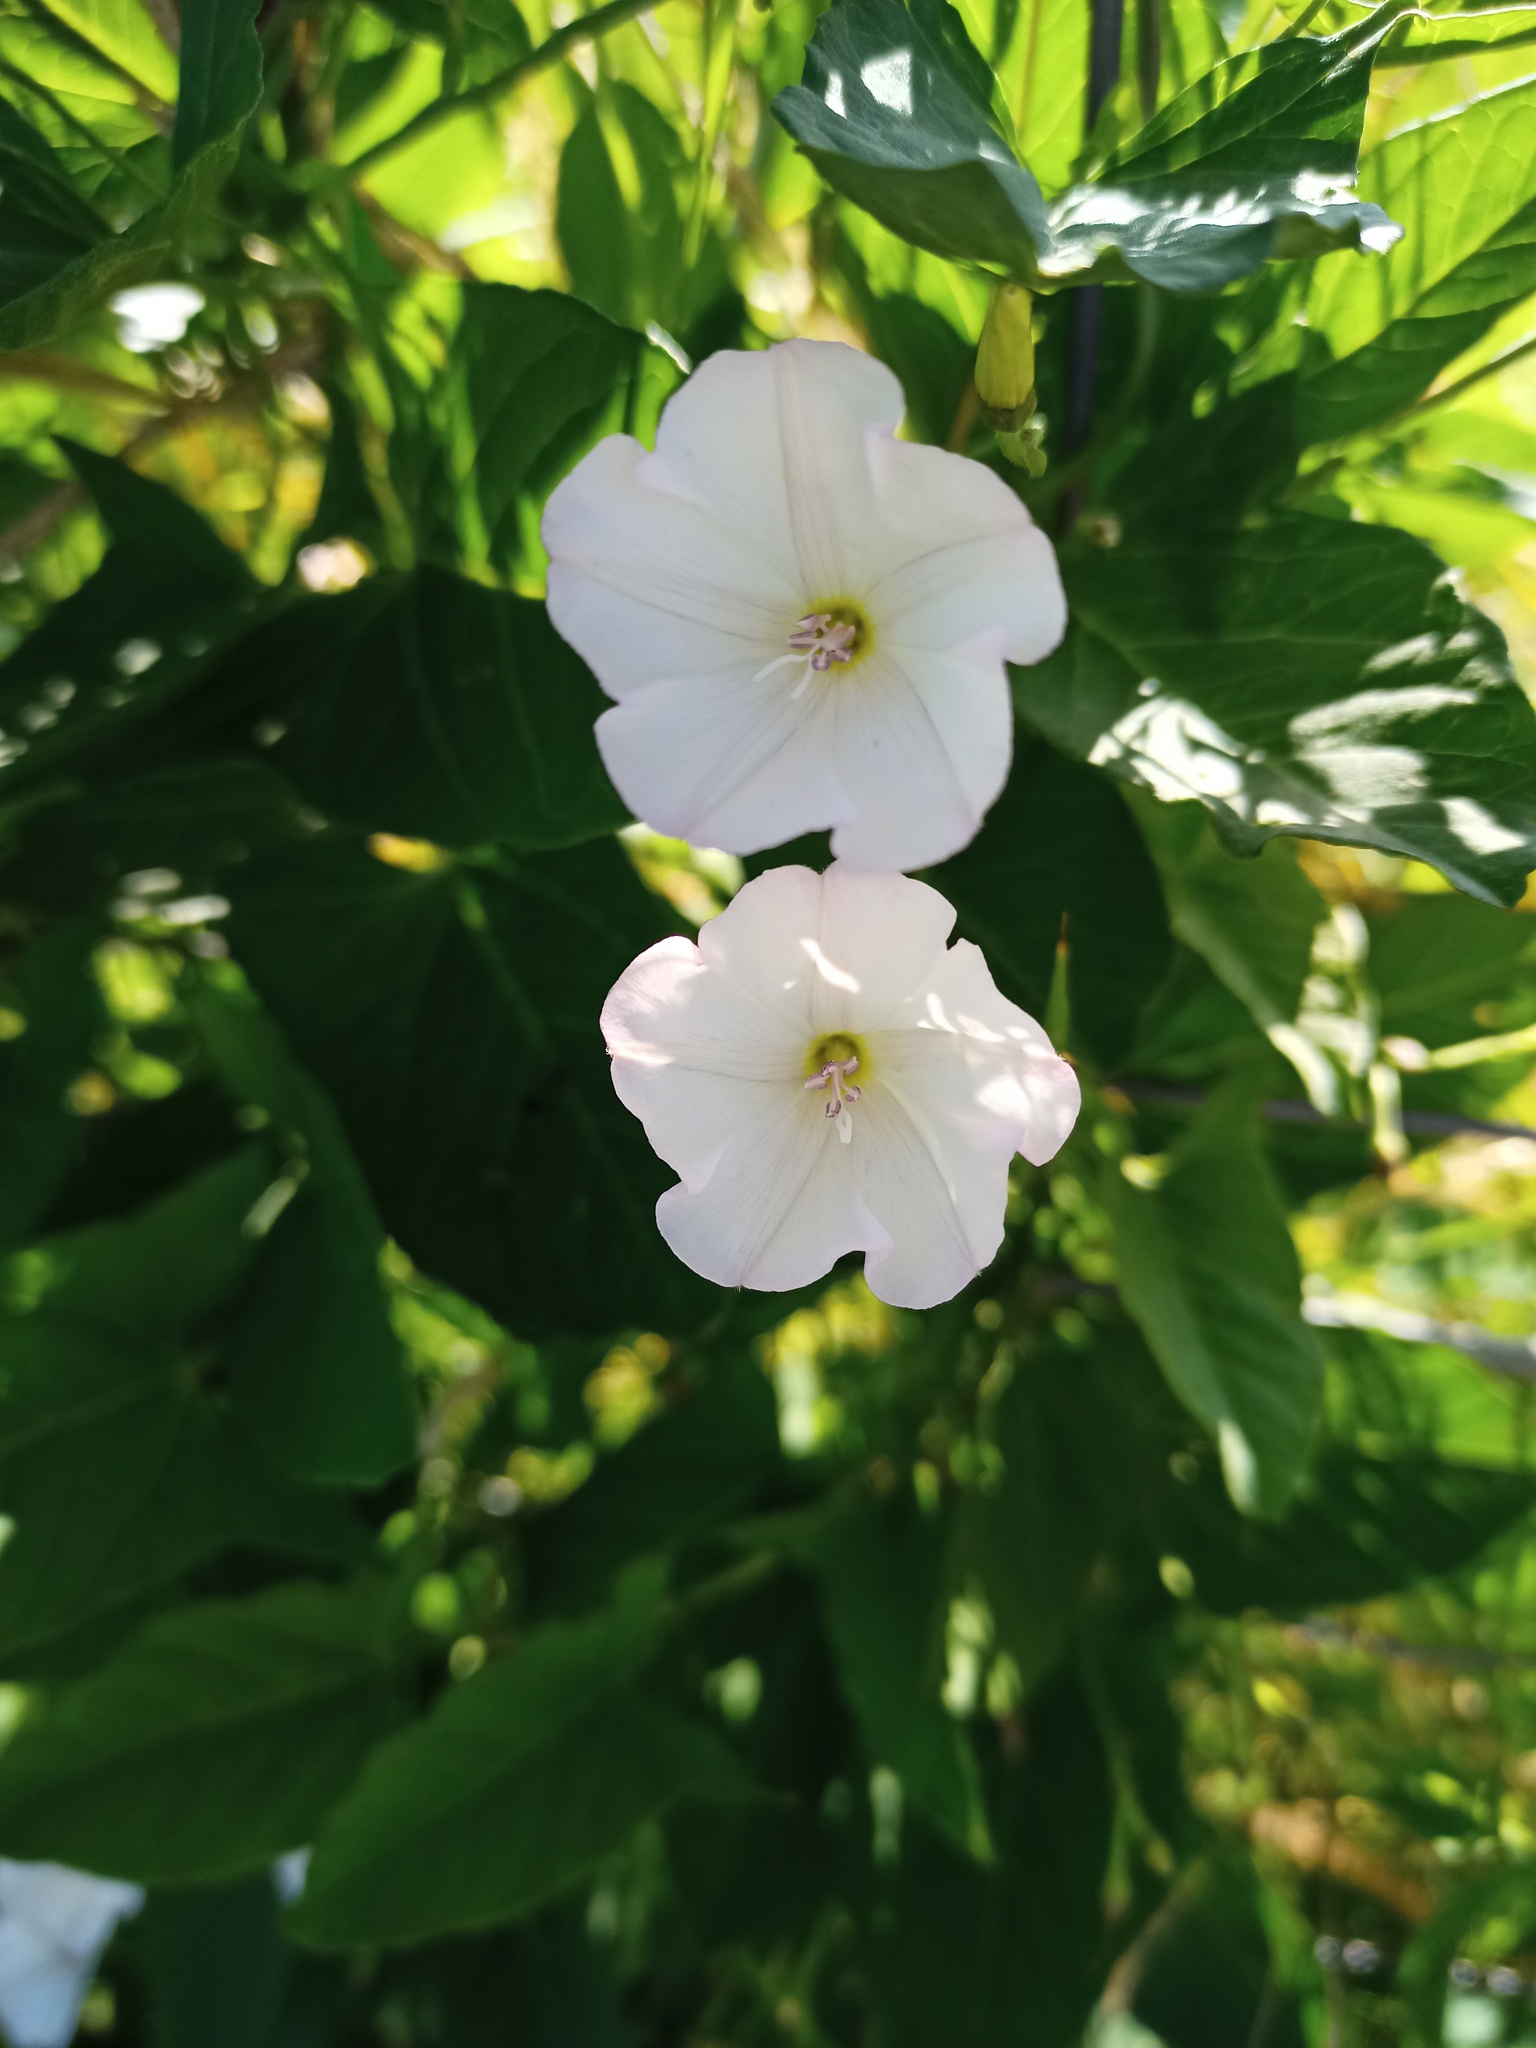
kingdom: Plantae
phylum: Tracheophyta
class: Magnoliopsida
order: Solanales
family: Convolvulaceae
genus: Convolvulus
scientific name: Convolvulus arvensis
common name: Field bindweed
